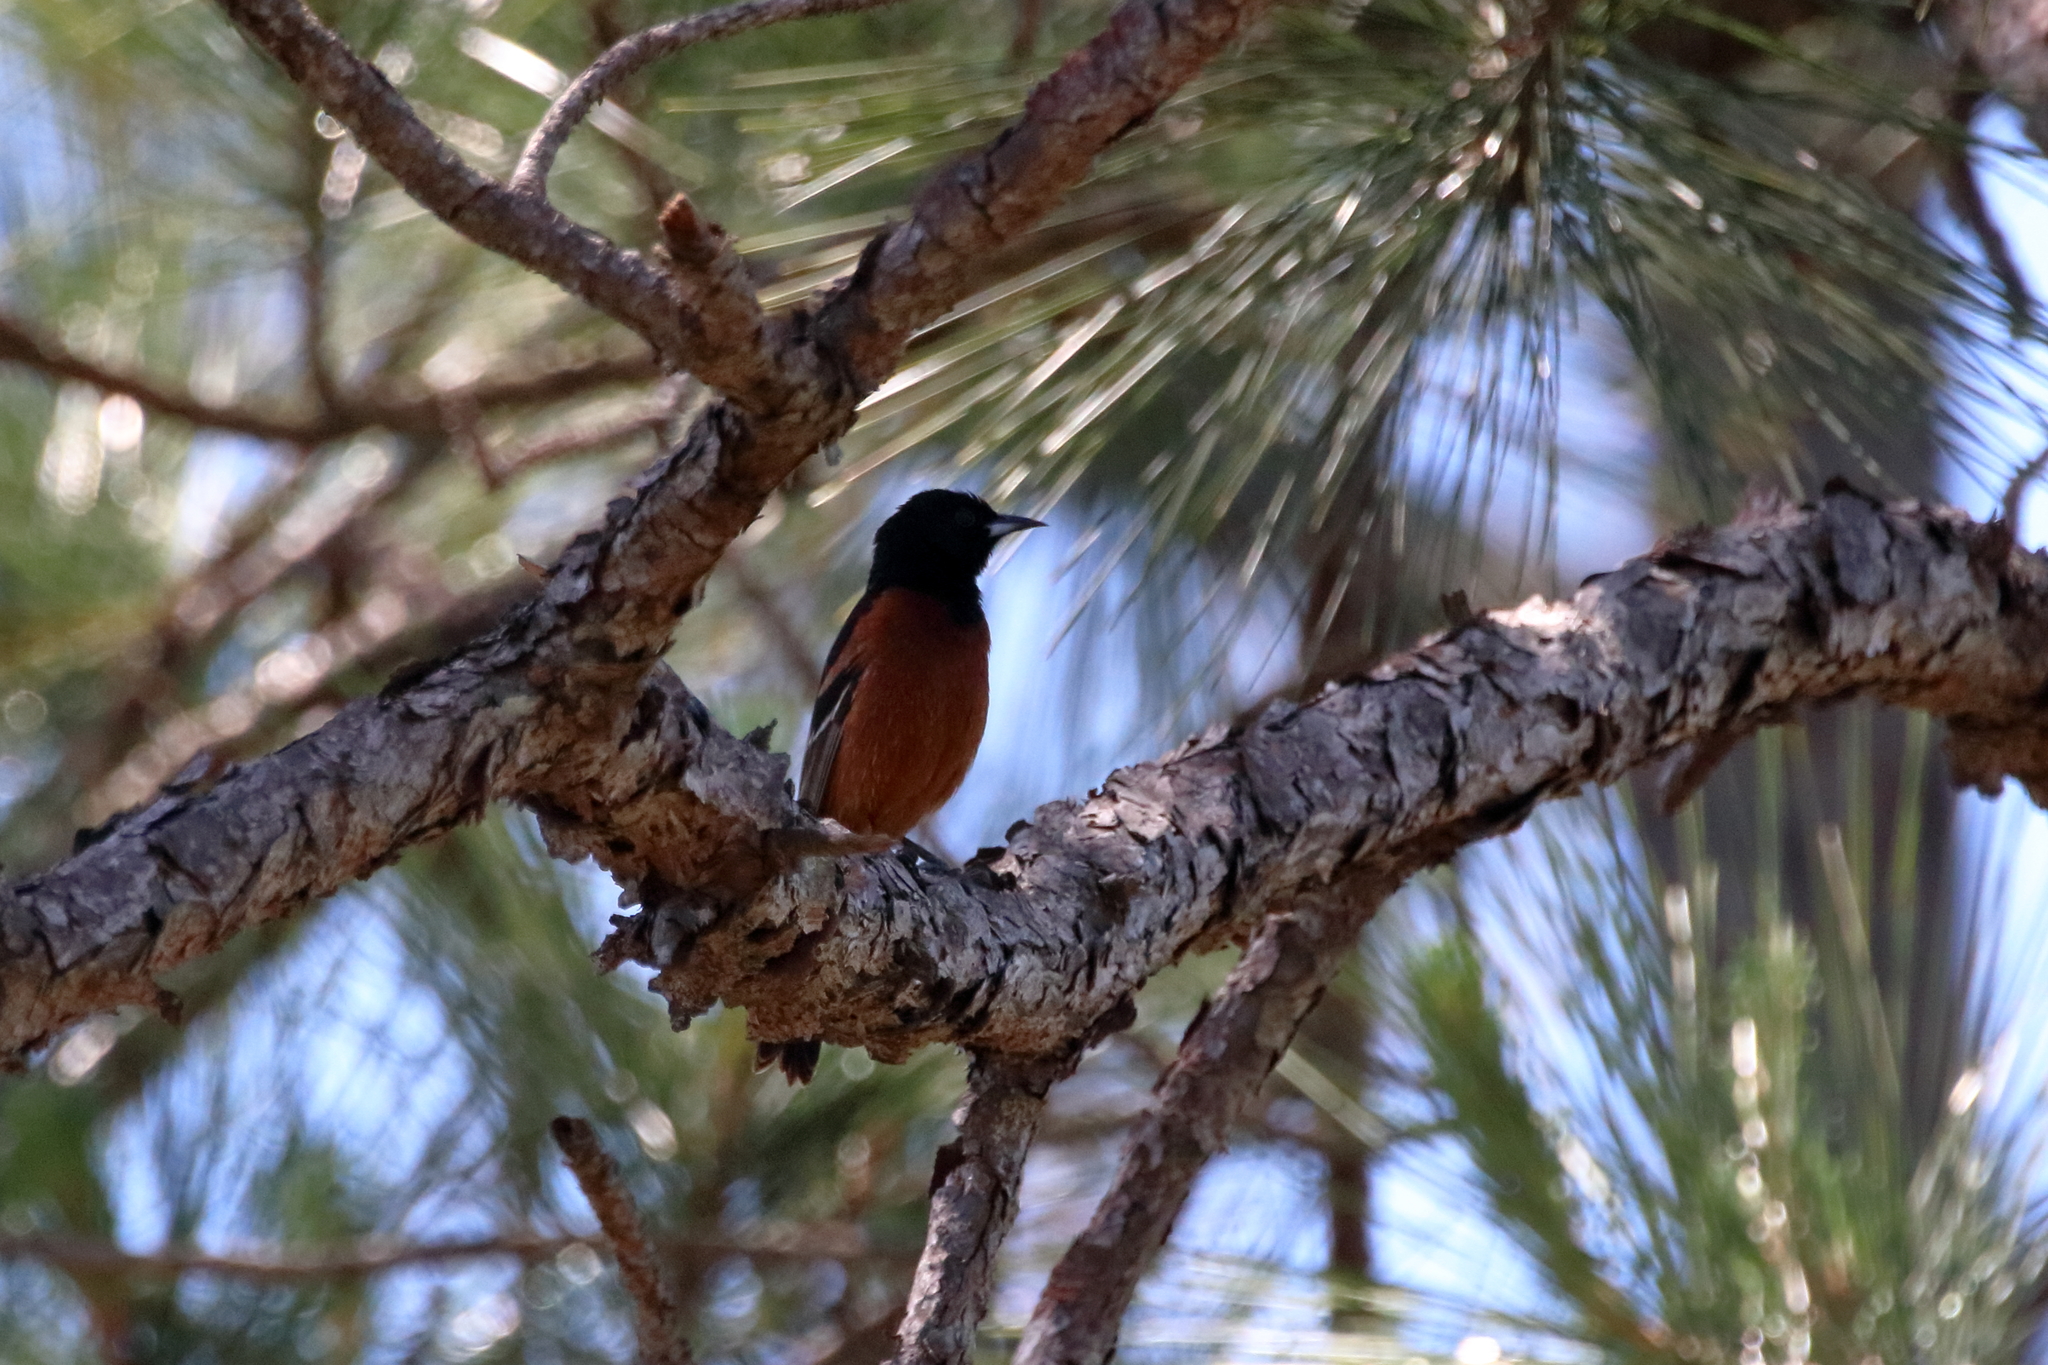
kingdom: Animalia
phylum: Chordata
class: Aves
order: Passeriformes
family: Icteridae
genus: Icterus
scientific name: Icterus spurius
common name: Orchard oriole
